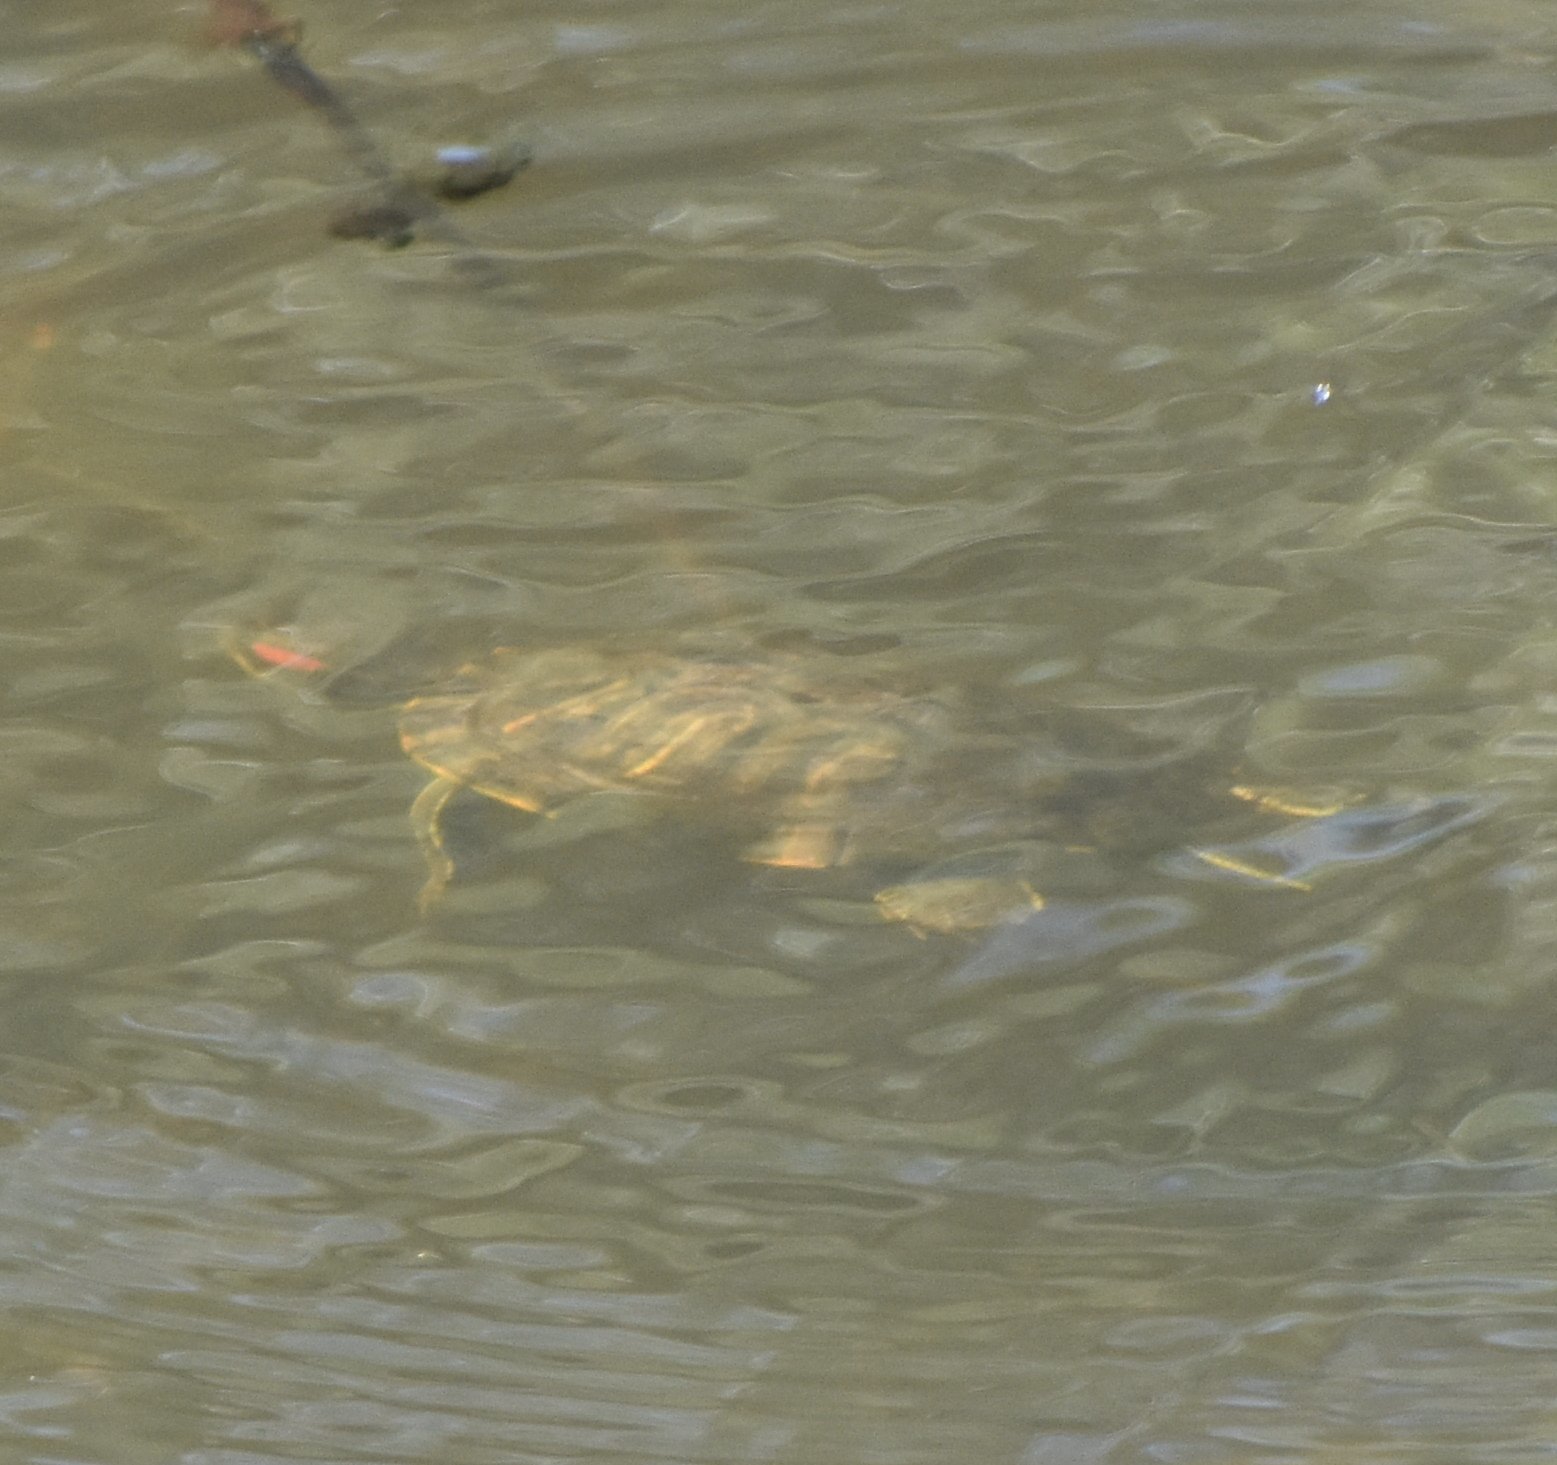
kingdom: Animalia
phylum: Chordata
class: Testudines
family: Emydidae
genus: Trachemys
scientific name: Trachemys scripta
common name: Slider
